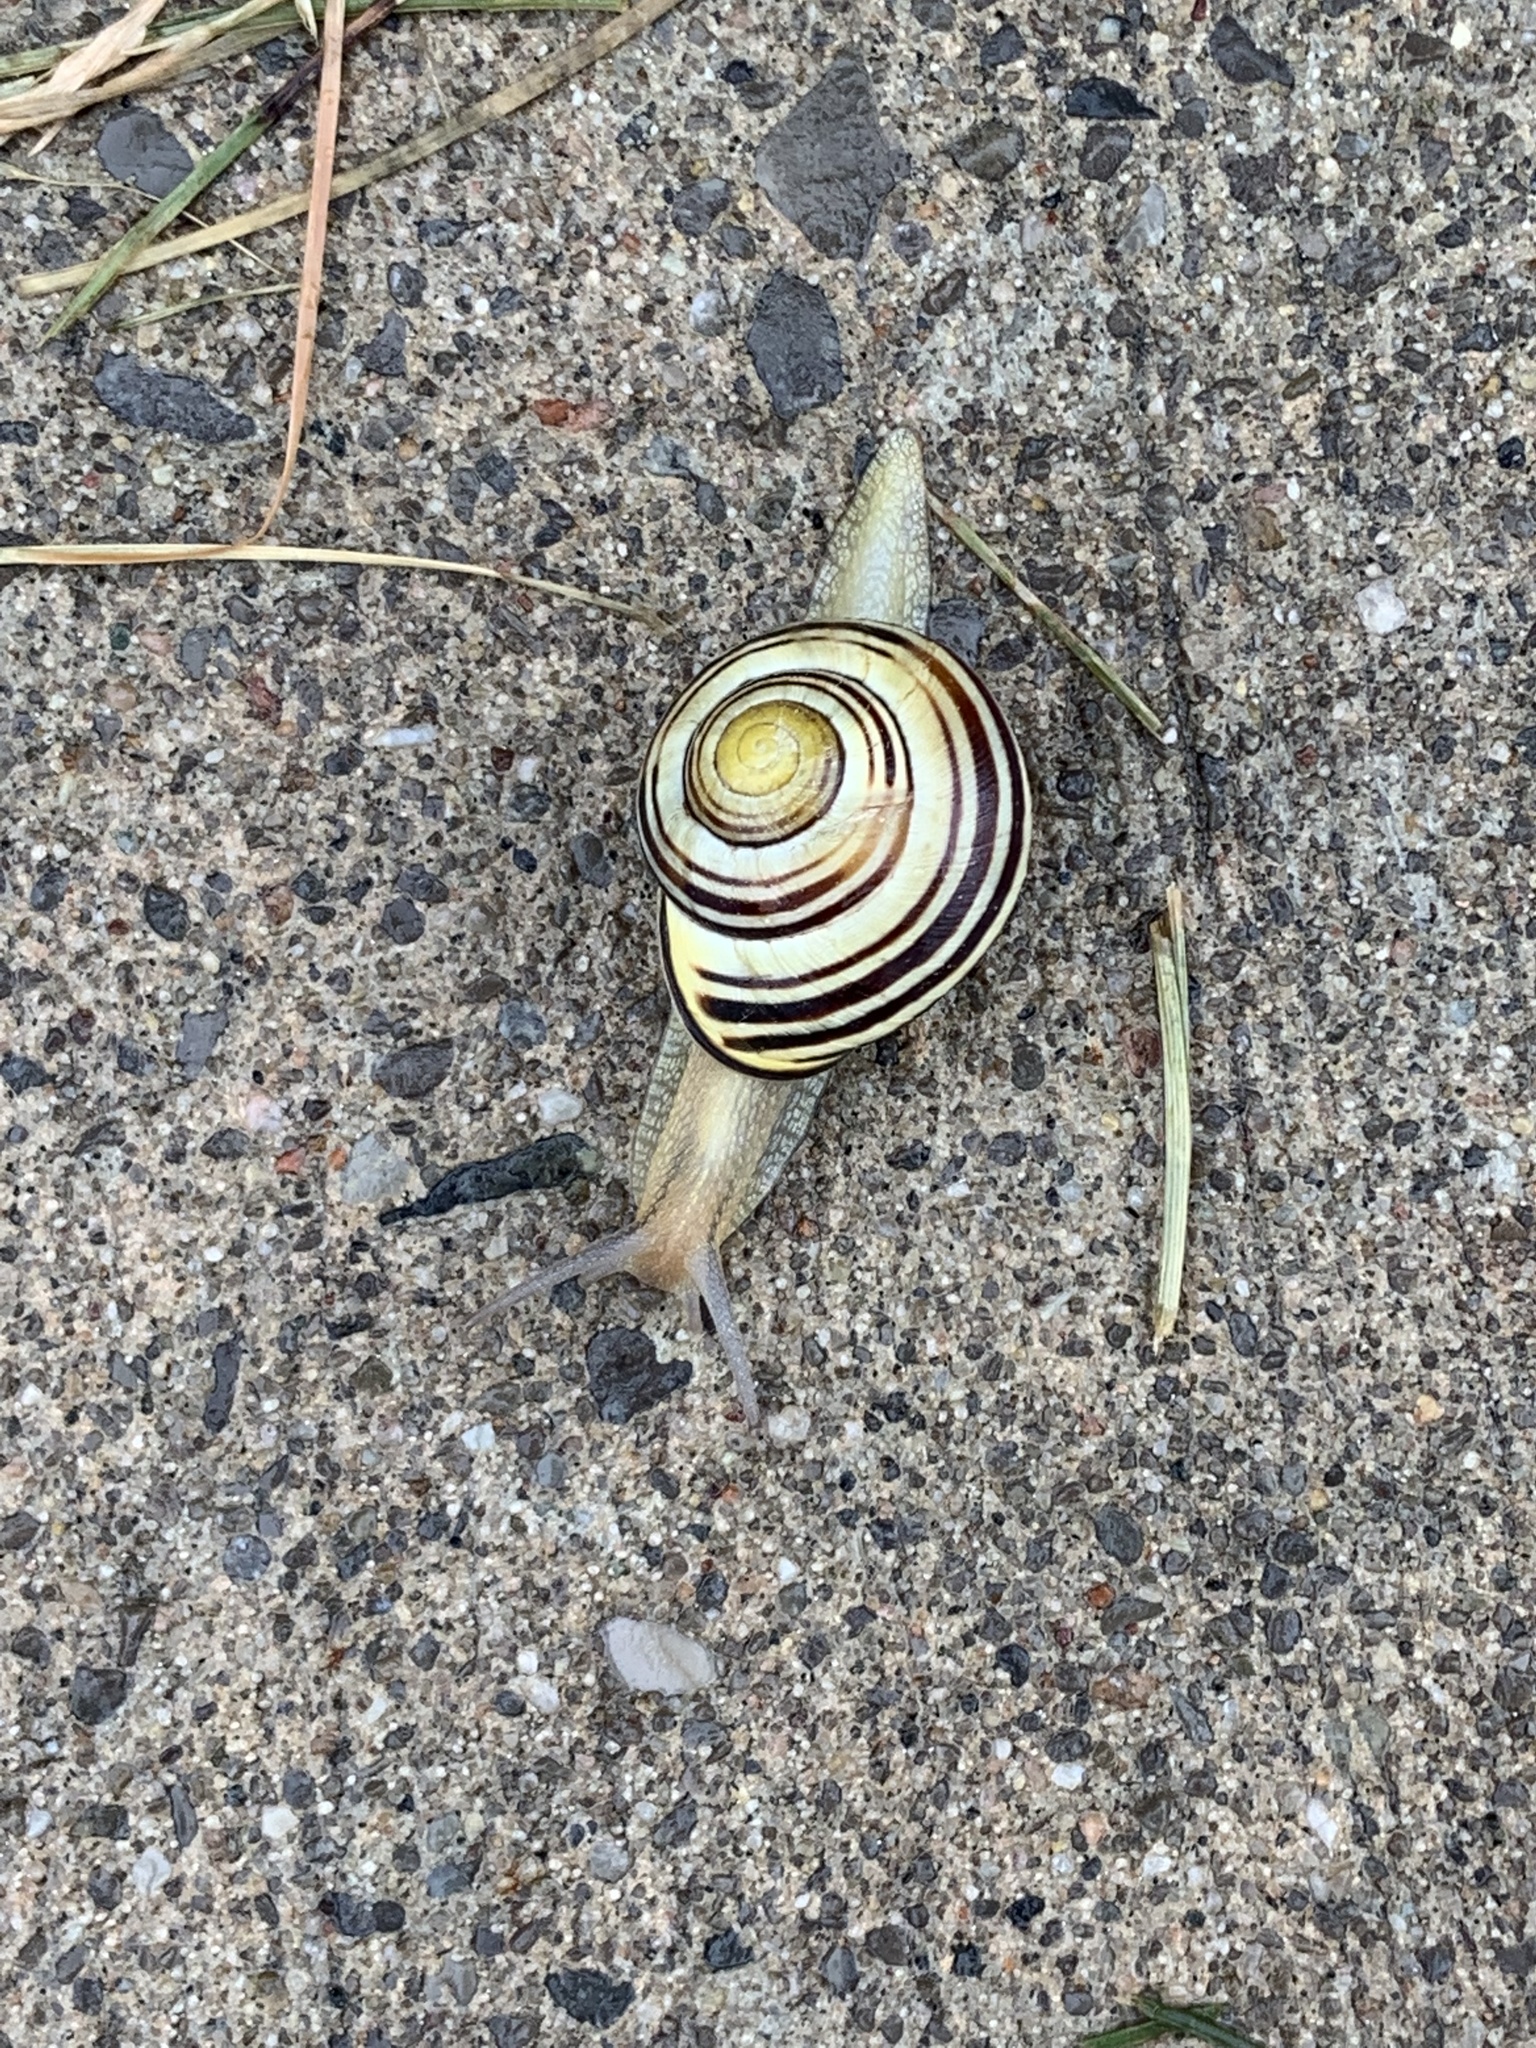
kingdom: Animalia
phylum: Mollusca
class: Gastropoda
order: Stylommatophora
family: Helicidae
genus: Cepaea
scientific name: Cepaea nemoralis
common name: Grovesnail
